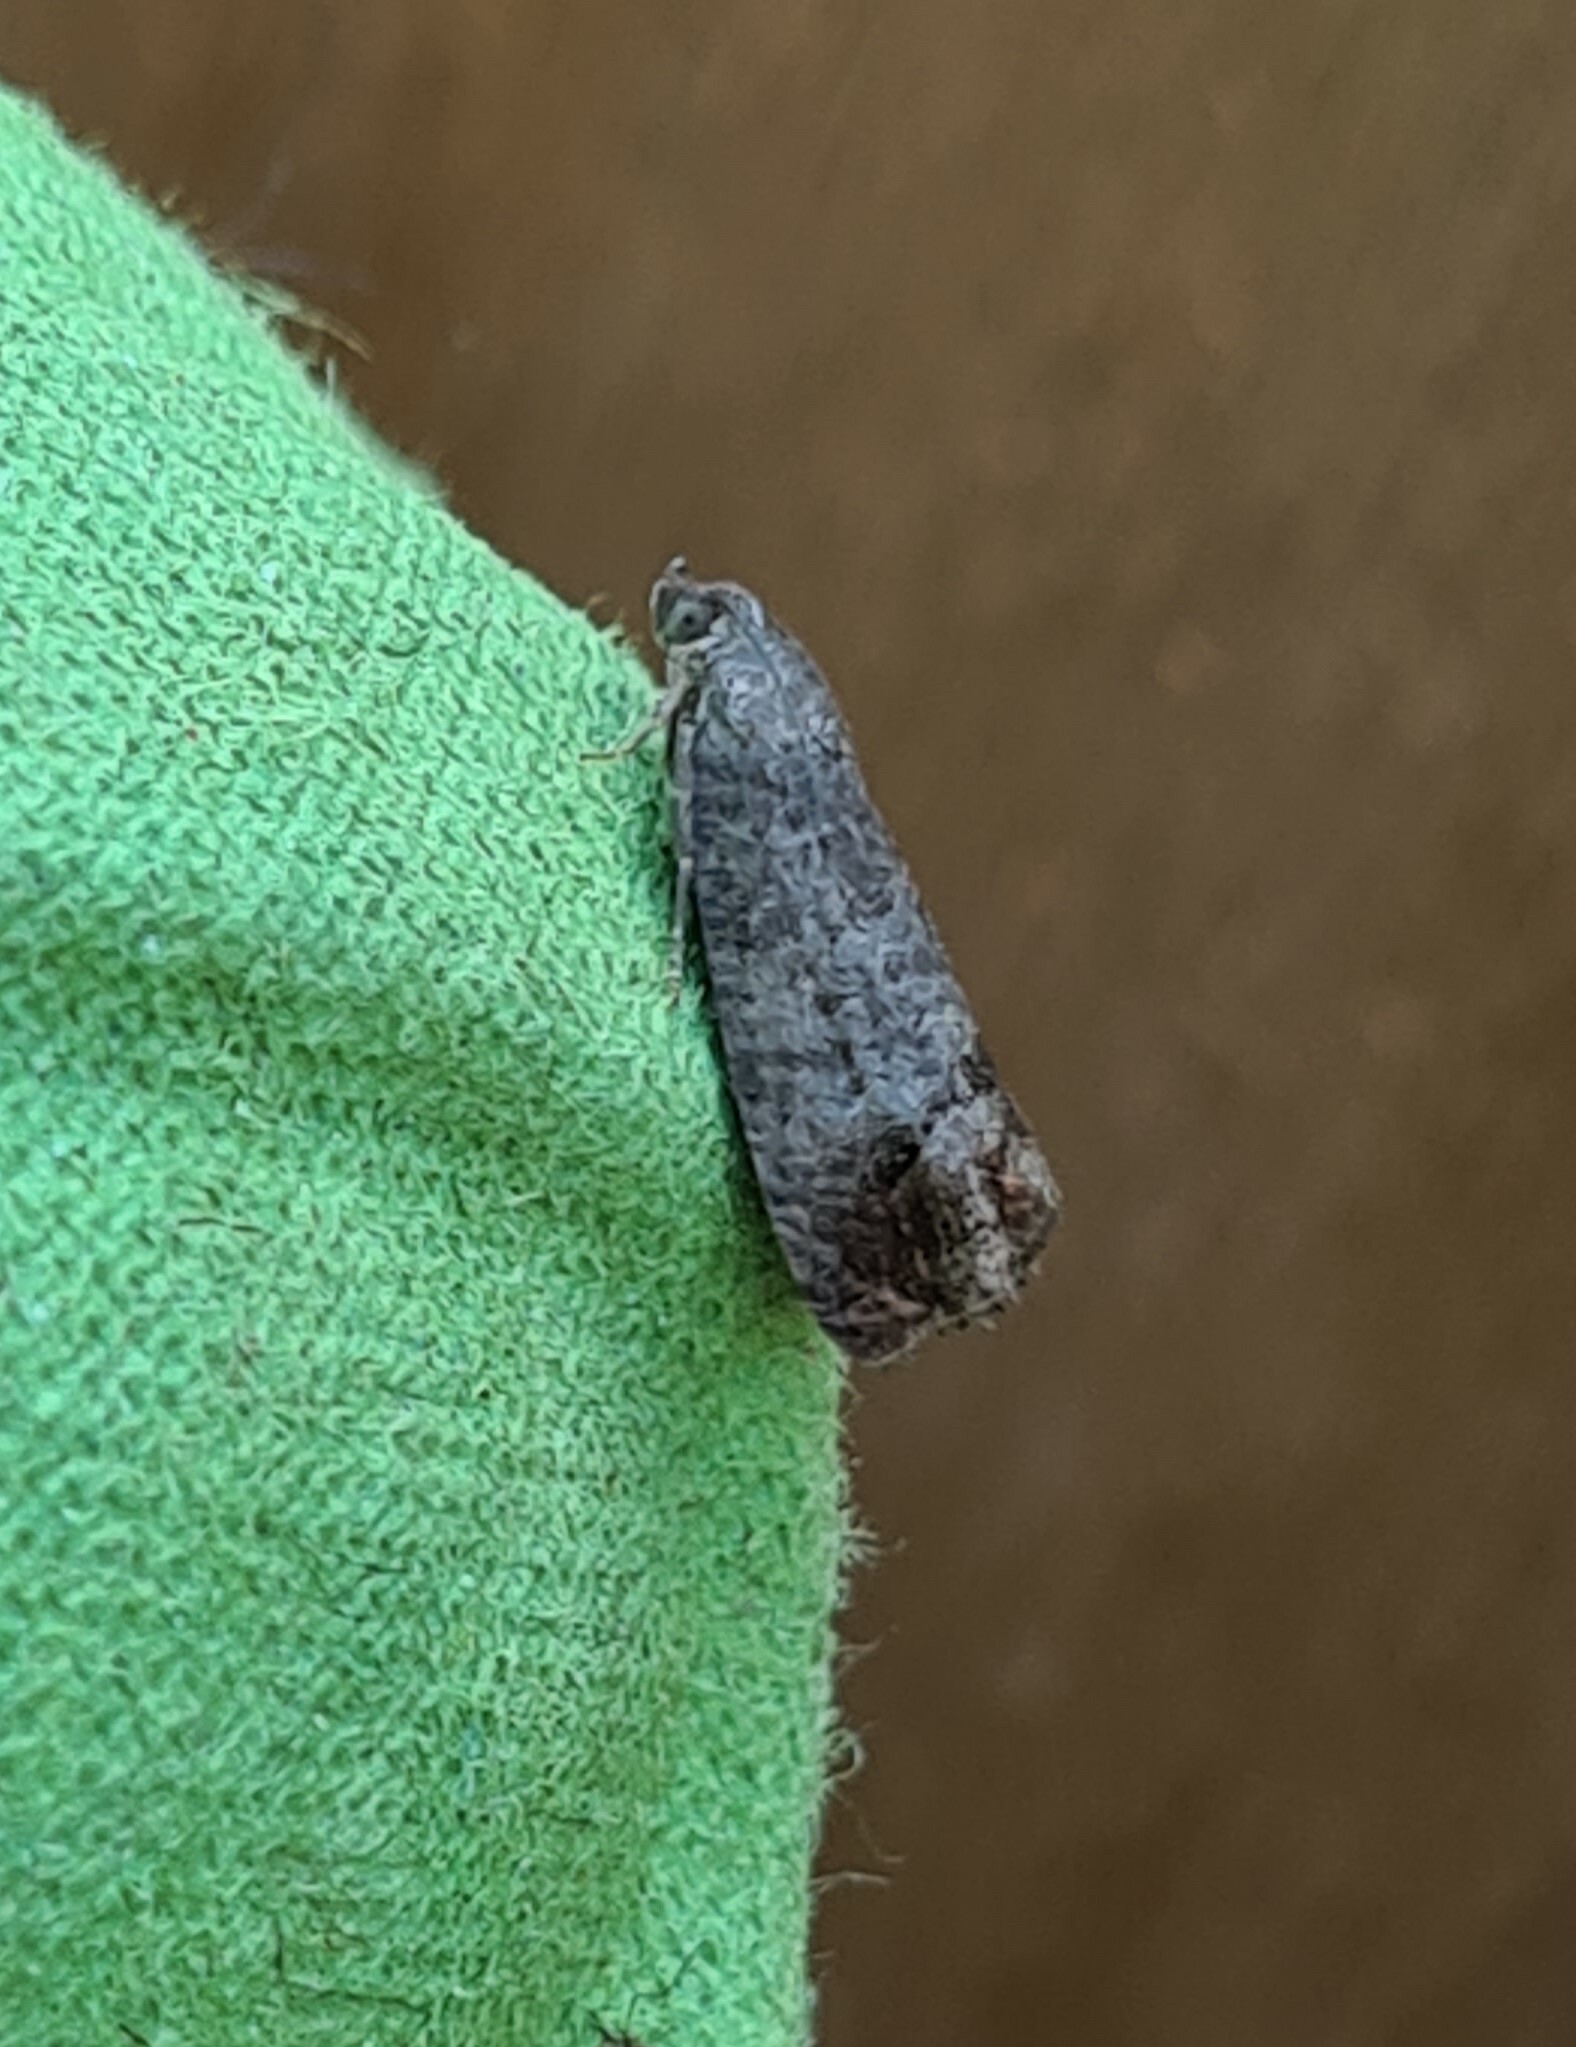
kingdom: Animalia
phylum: Arthropoda
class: Insecta
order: Lepidoptera
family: Tortricidae
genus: Cydia
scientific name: Cydia pomonella
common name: Codling moth
